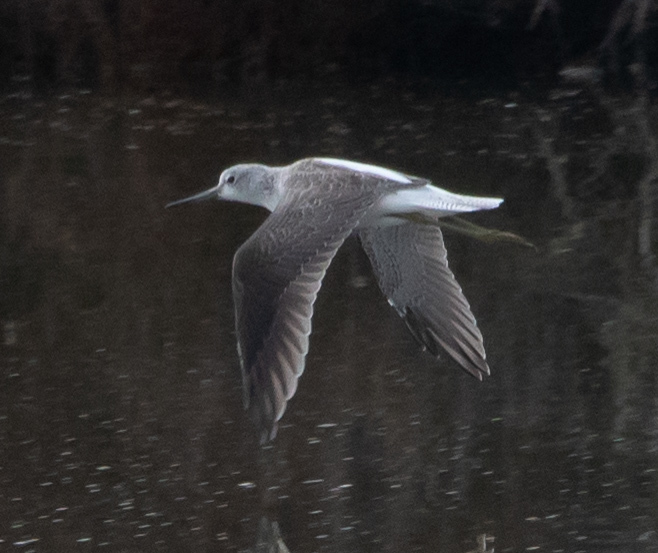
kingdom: Animalia
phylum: Chordata
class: Aves
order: Charadriiformes
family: Scolopacidae
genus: Tringa
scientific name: Tringa nebularia
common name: Common greenshank
